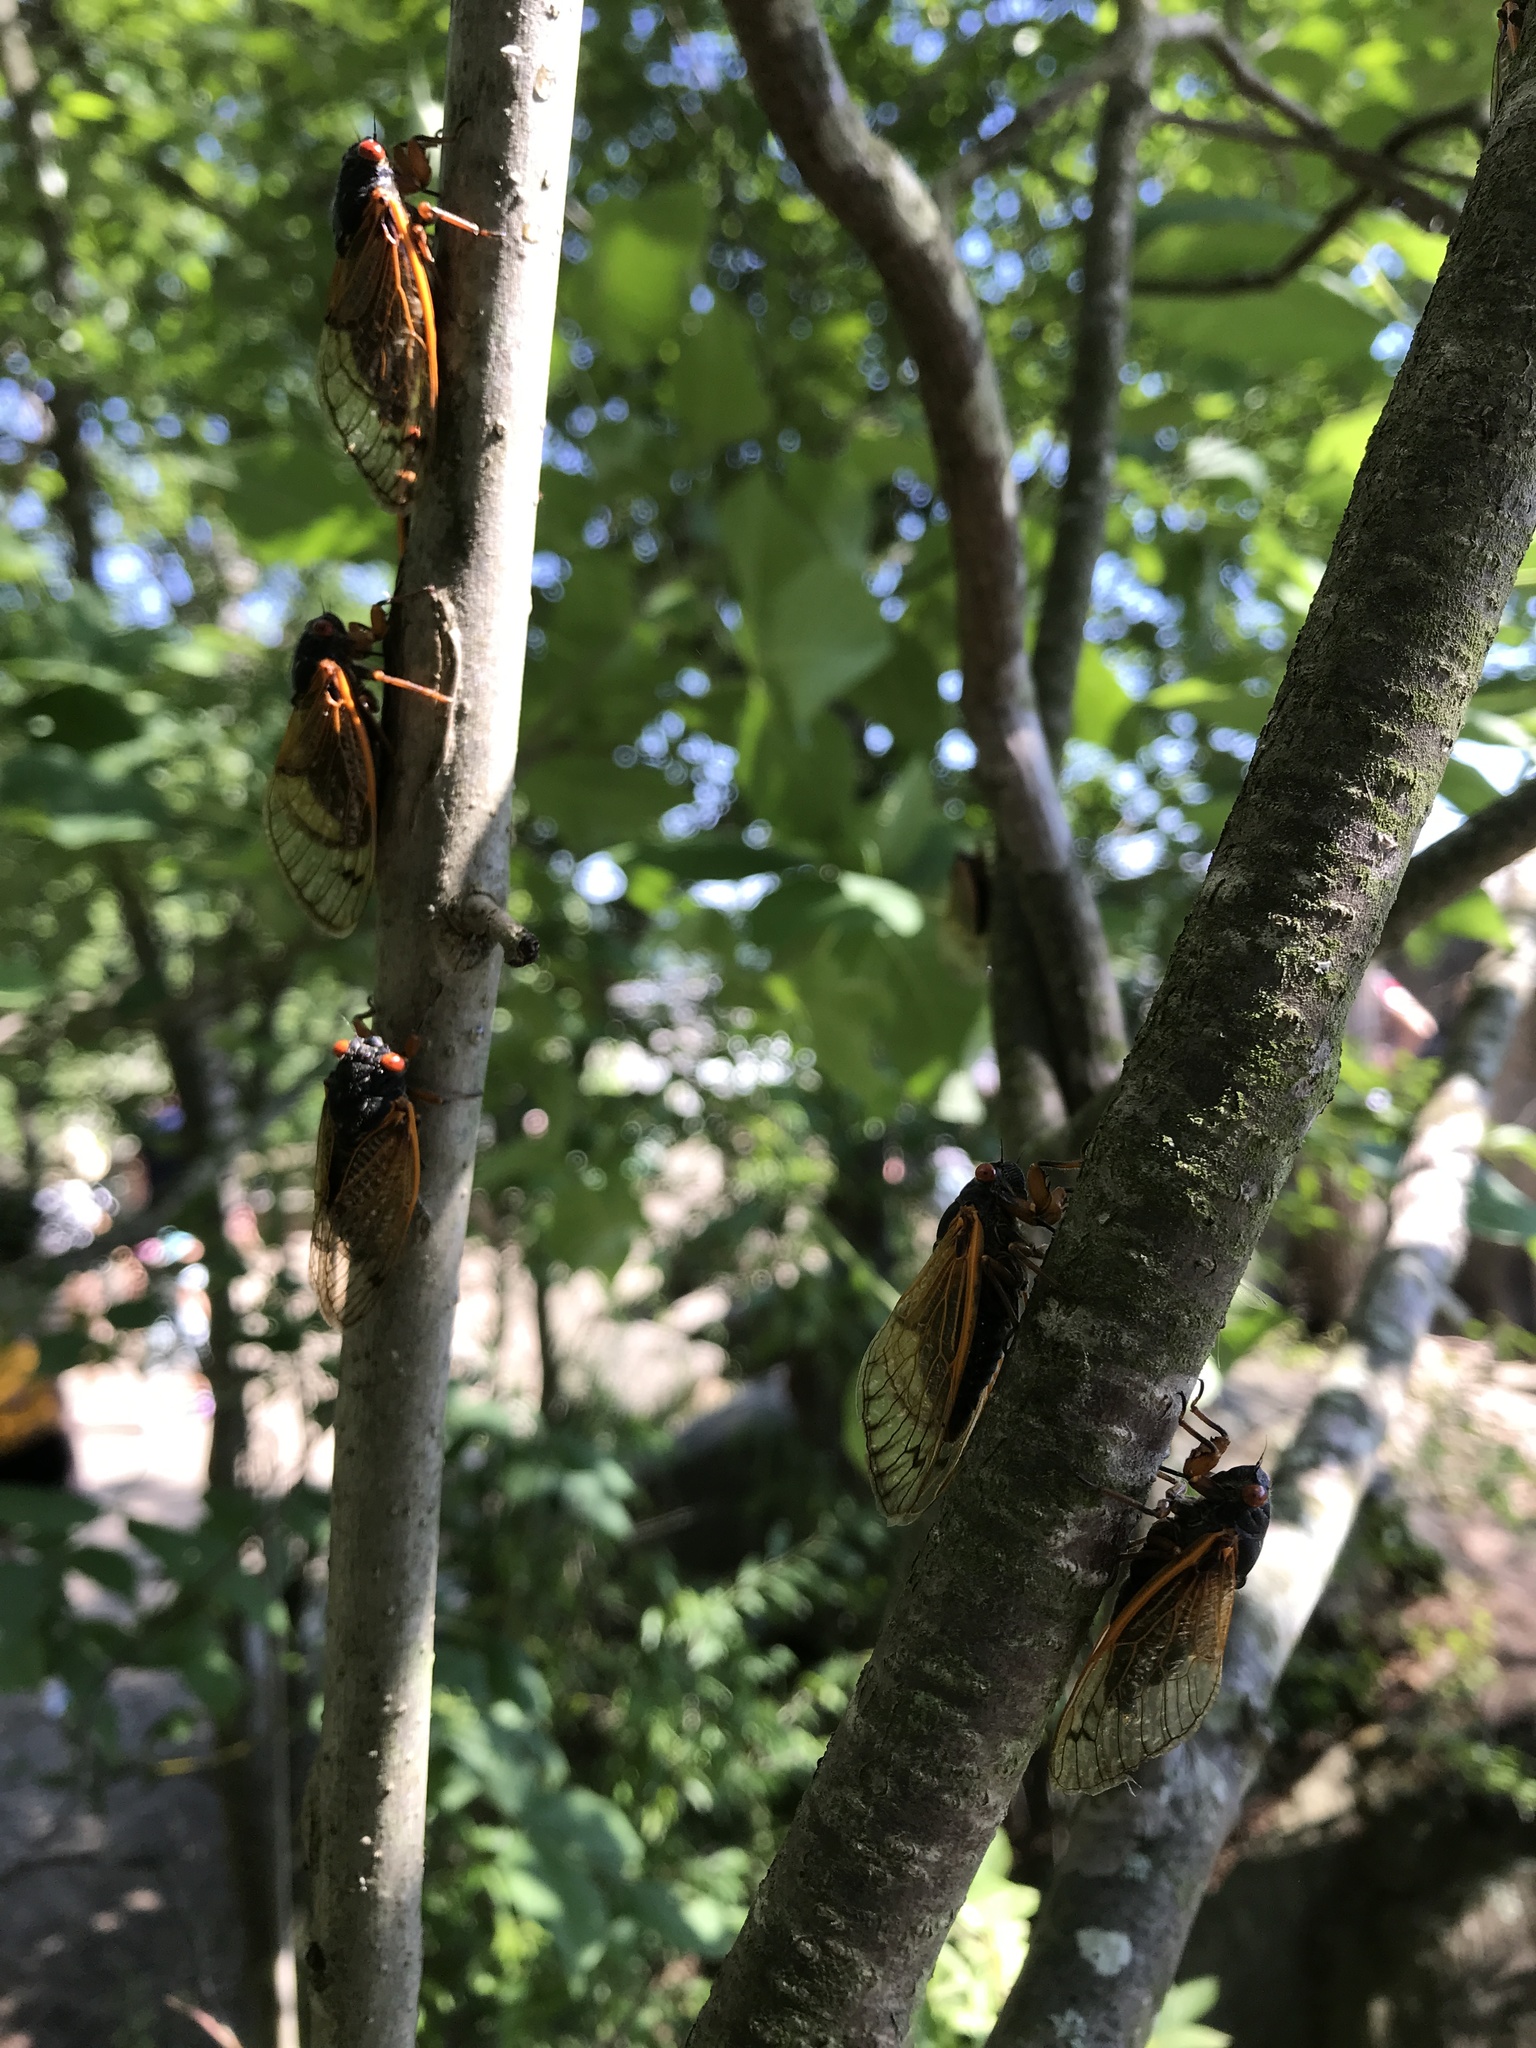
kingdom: Animalia
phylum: Arthropoda
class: Insecta
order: Hemiptera
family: Cicadidae
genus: Magicicada
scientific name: Magicicada
